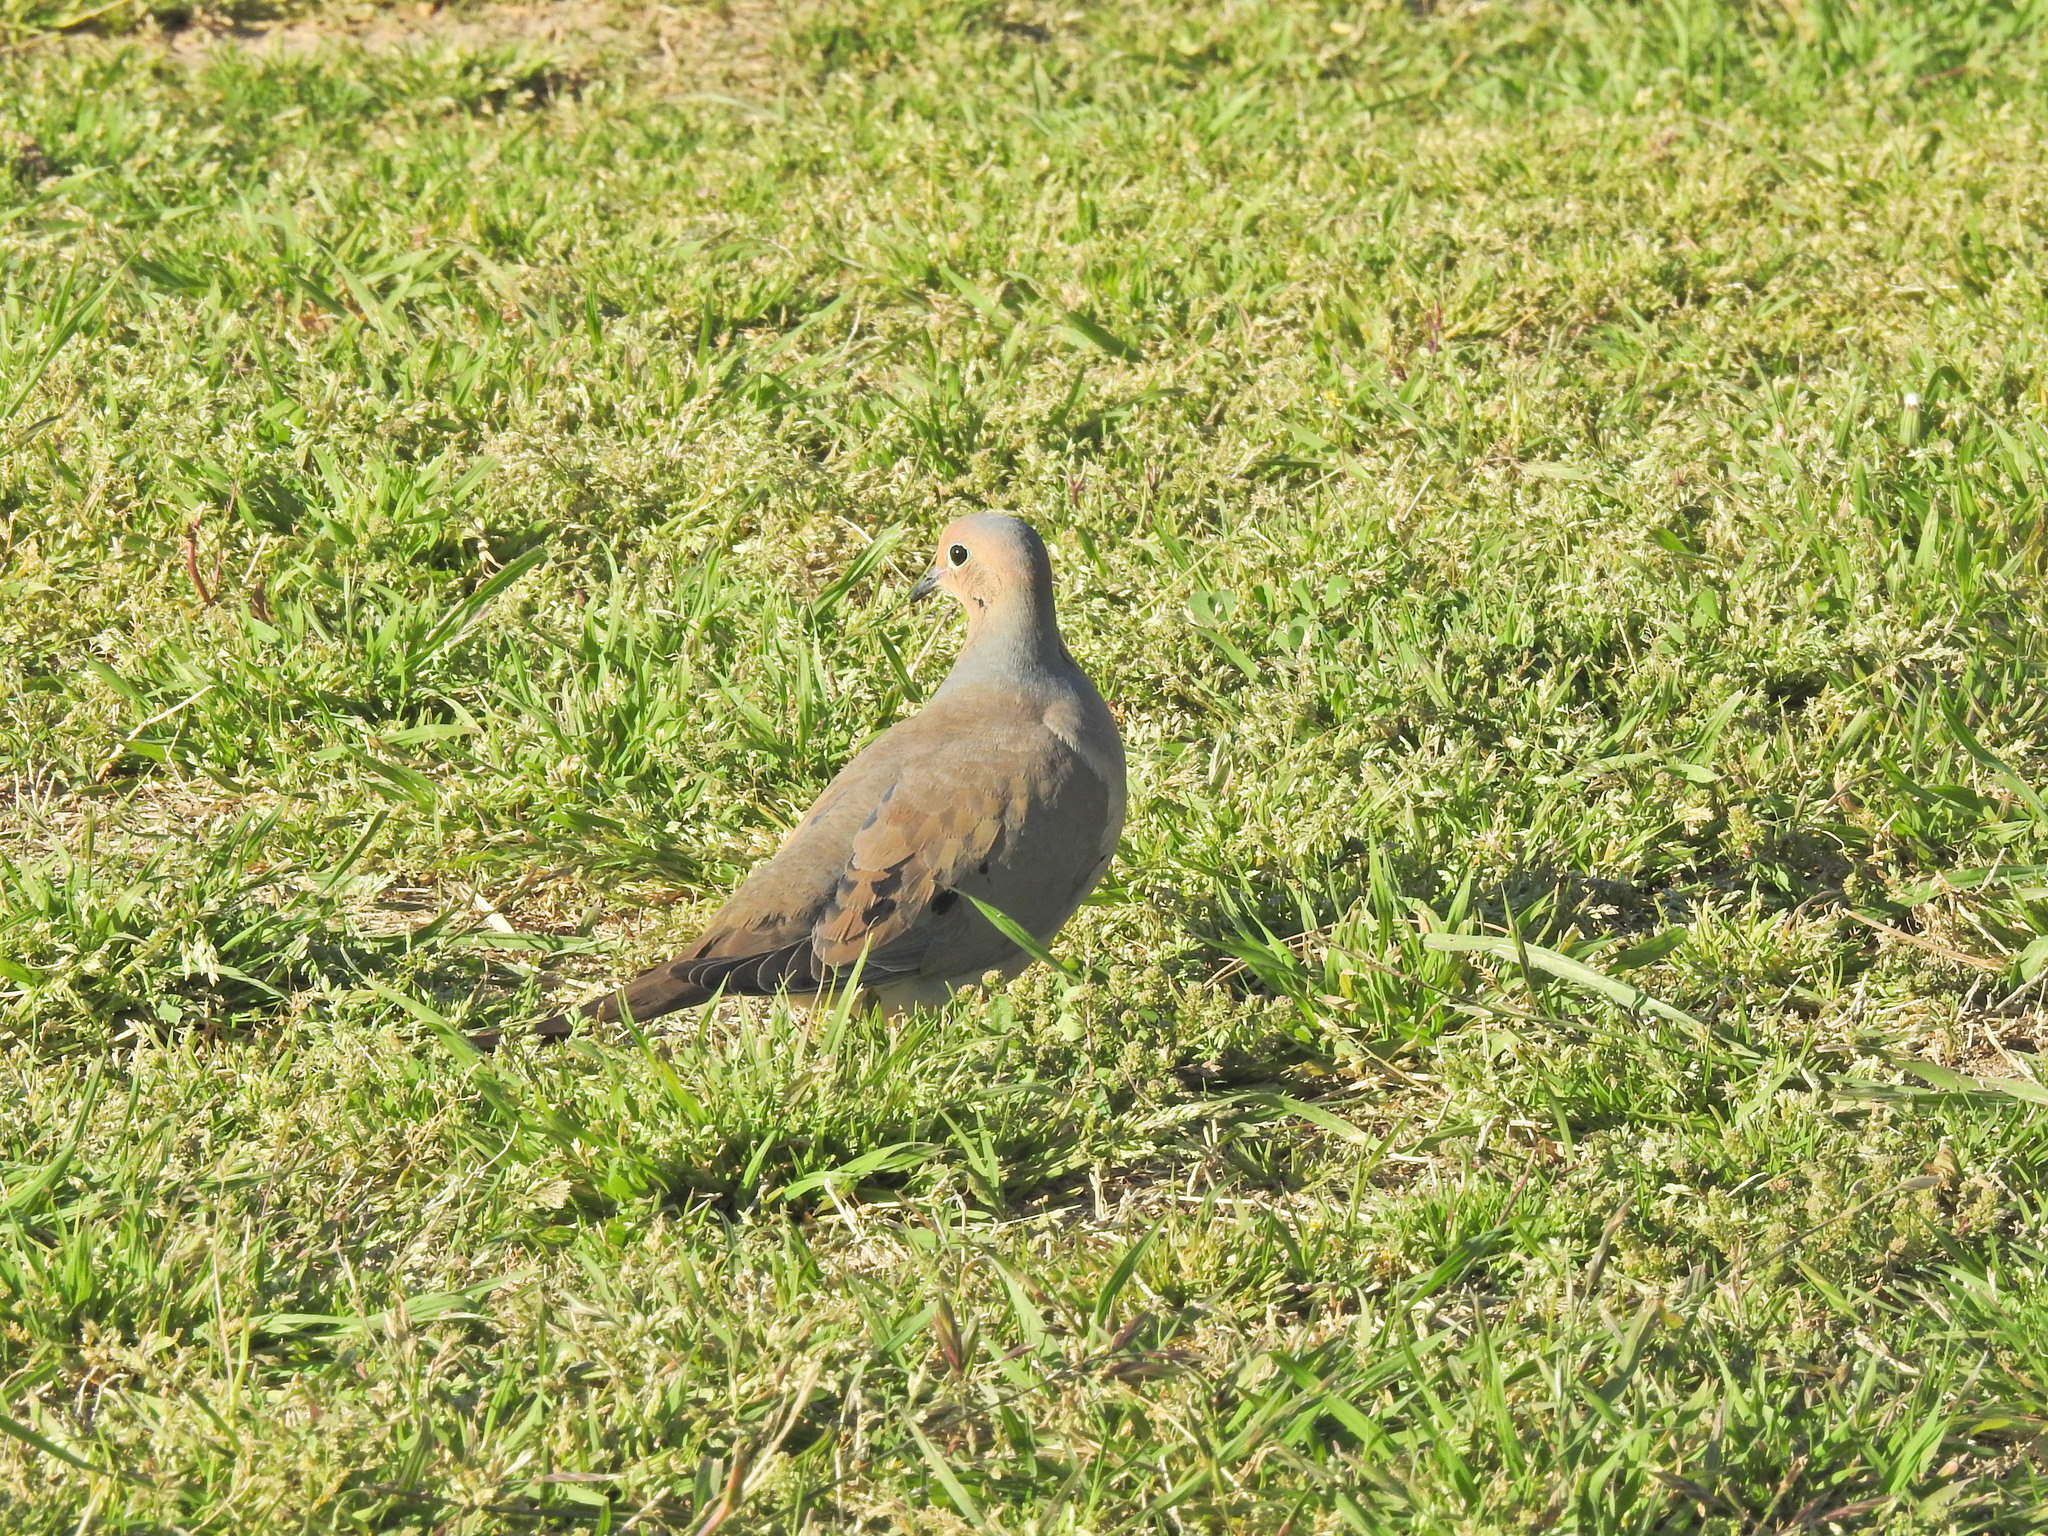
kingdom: Animalia
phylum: Chordata
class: Aves
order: Columbiformes
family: Columbidae
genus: Zenaida
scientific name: Zenaida macroura
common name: Mourning dove
